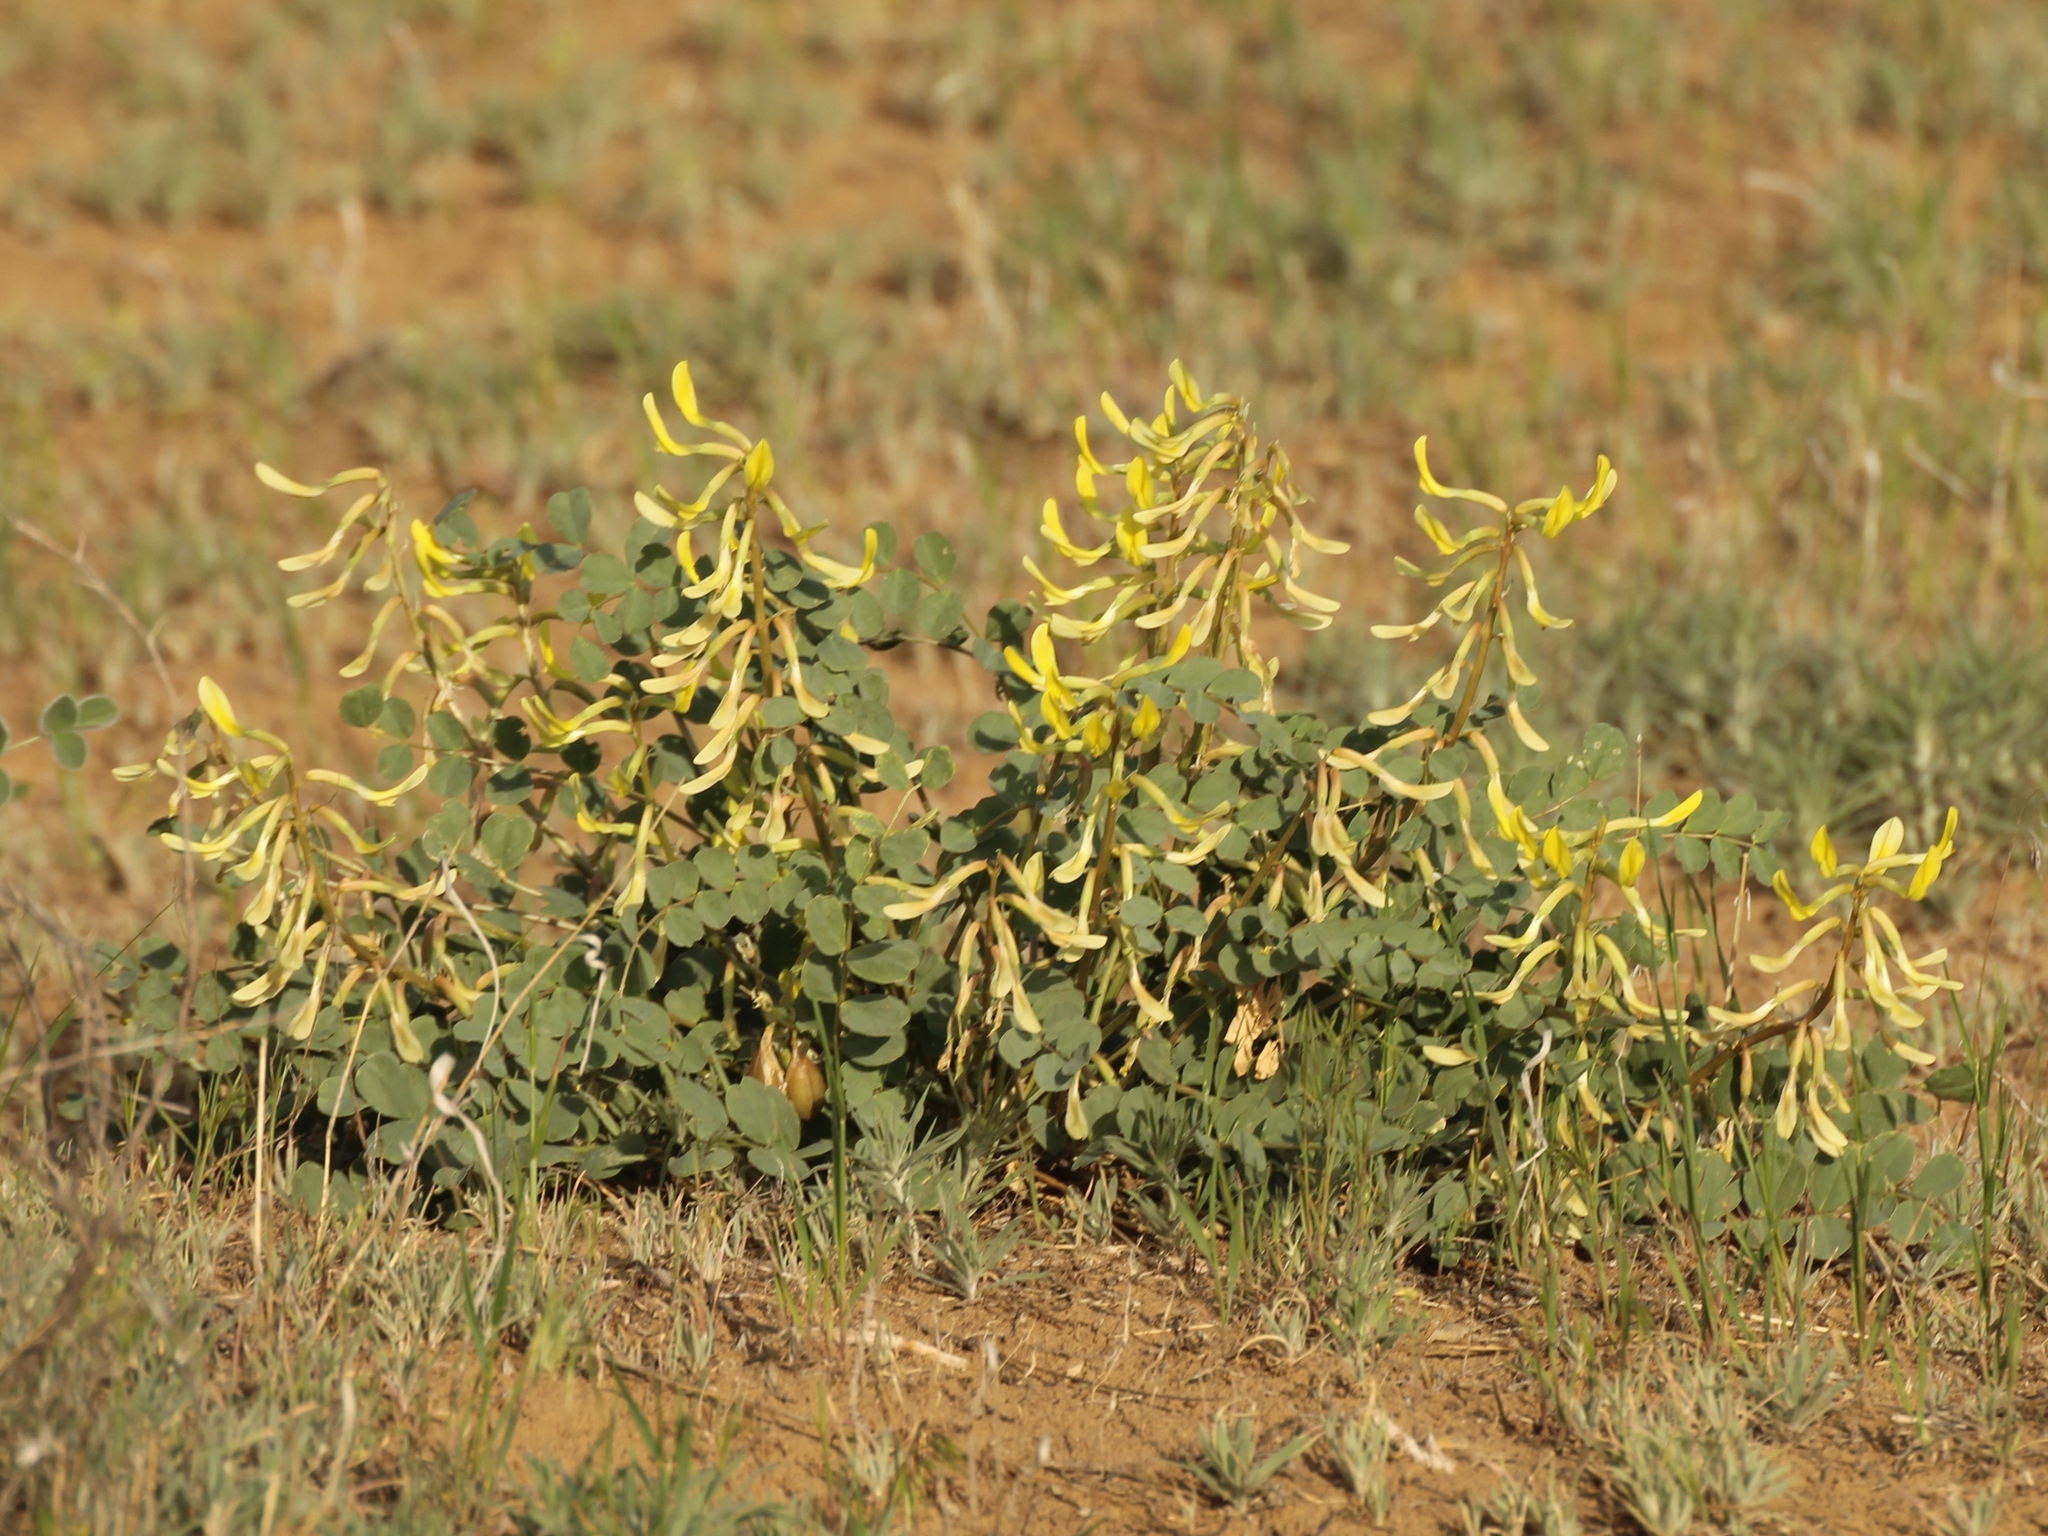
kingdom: Plantae
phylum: Tracheophyta
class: Magnoliopsida
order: Fabales
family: Fabaceae
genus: Astragalus
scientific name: Astragalus flexus
